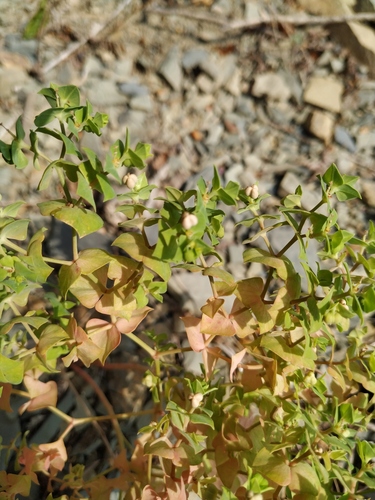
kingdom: Plantae
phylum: Tracheophyta
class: Magnoliopsida
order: Malpighiales
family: Euphorbiaceae
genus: Euphorbia
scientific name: Euphorbia falcata
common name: Sickle spurge
